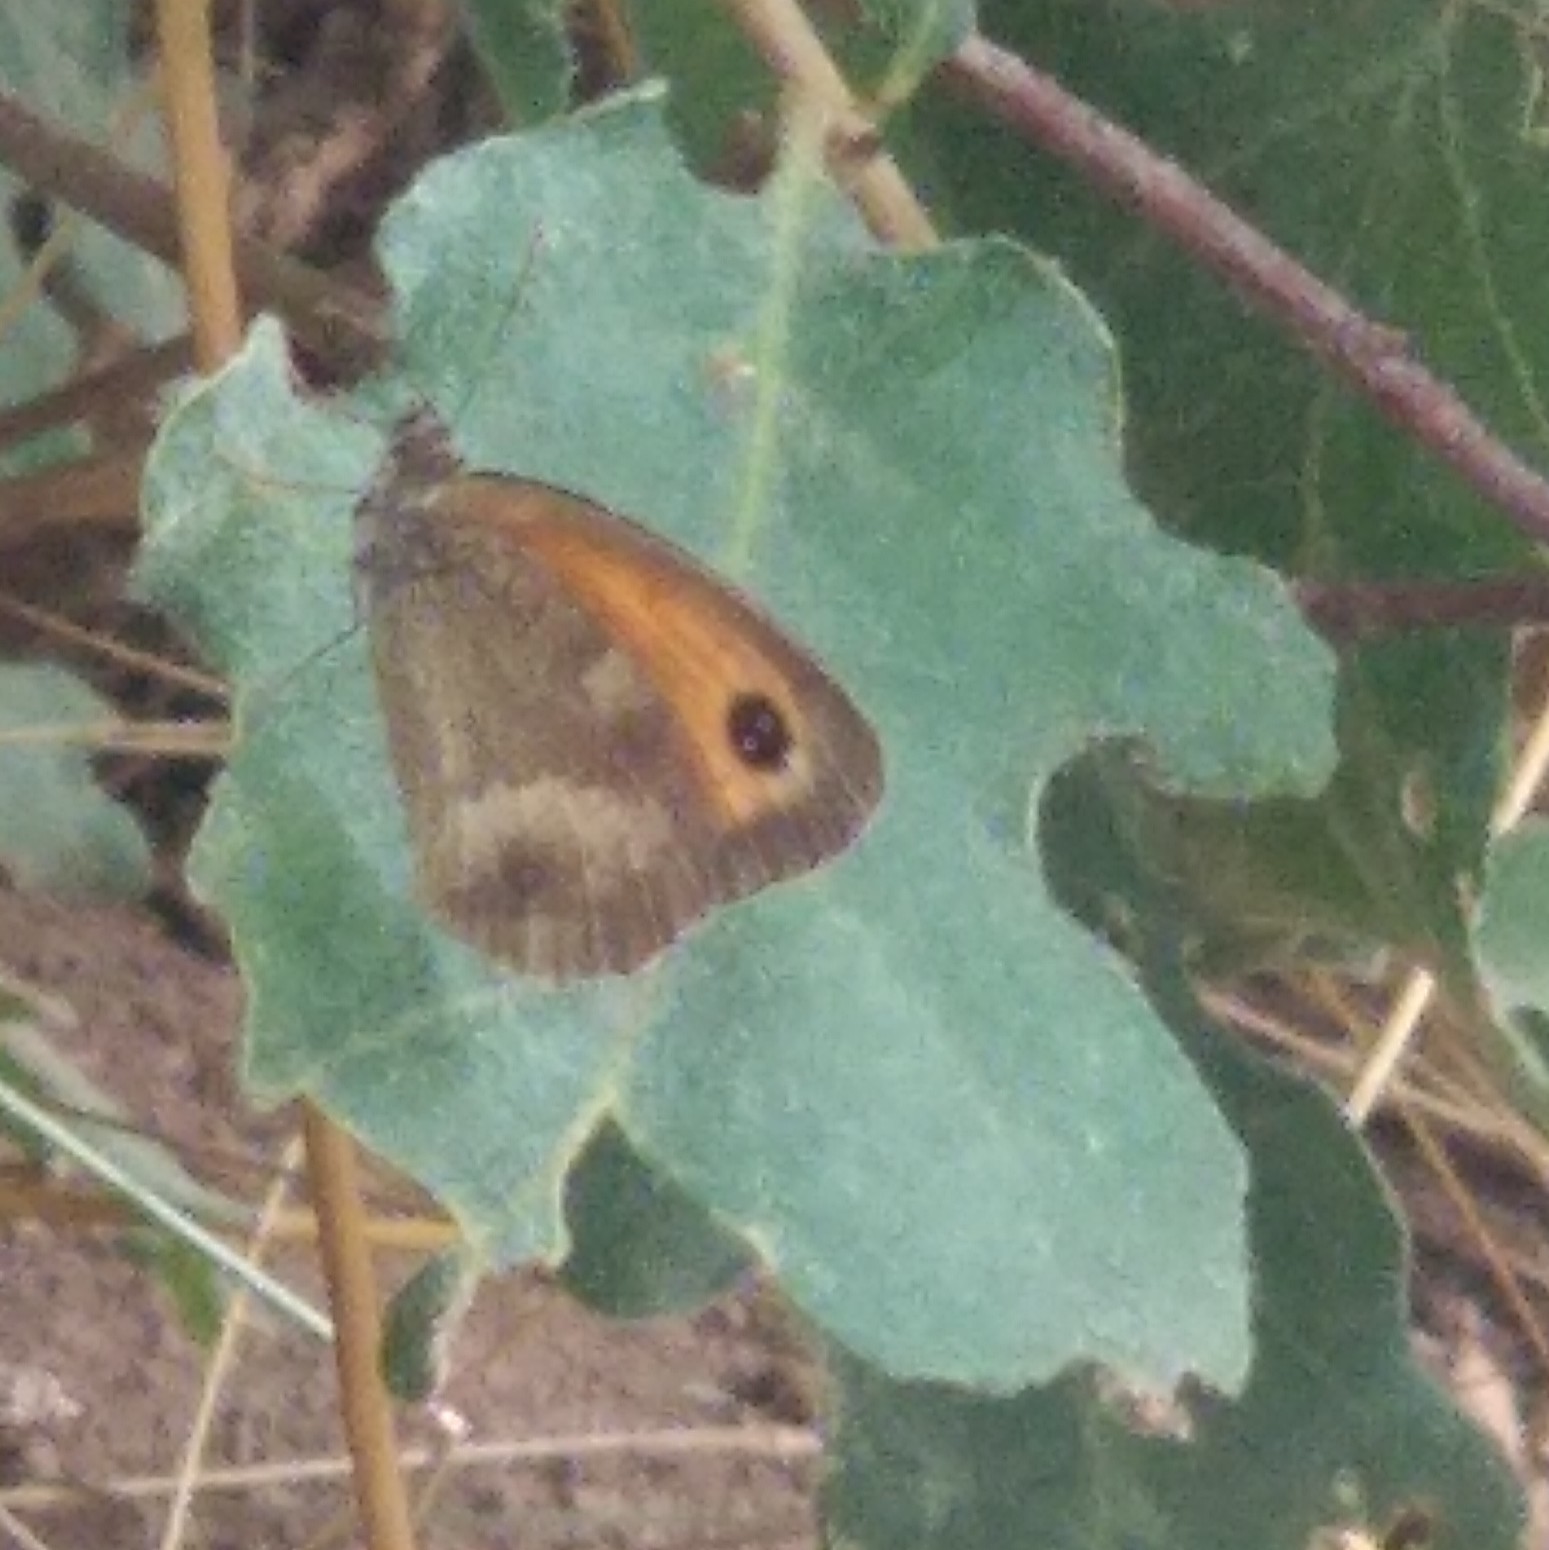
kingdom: Animalia
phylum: Arthropoda
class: Insecta
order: Lepidoptera
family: Nymphalidae
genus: Pyronia
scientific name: Pyronia tithonus
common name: Gatekeeper
